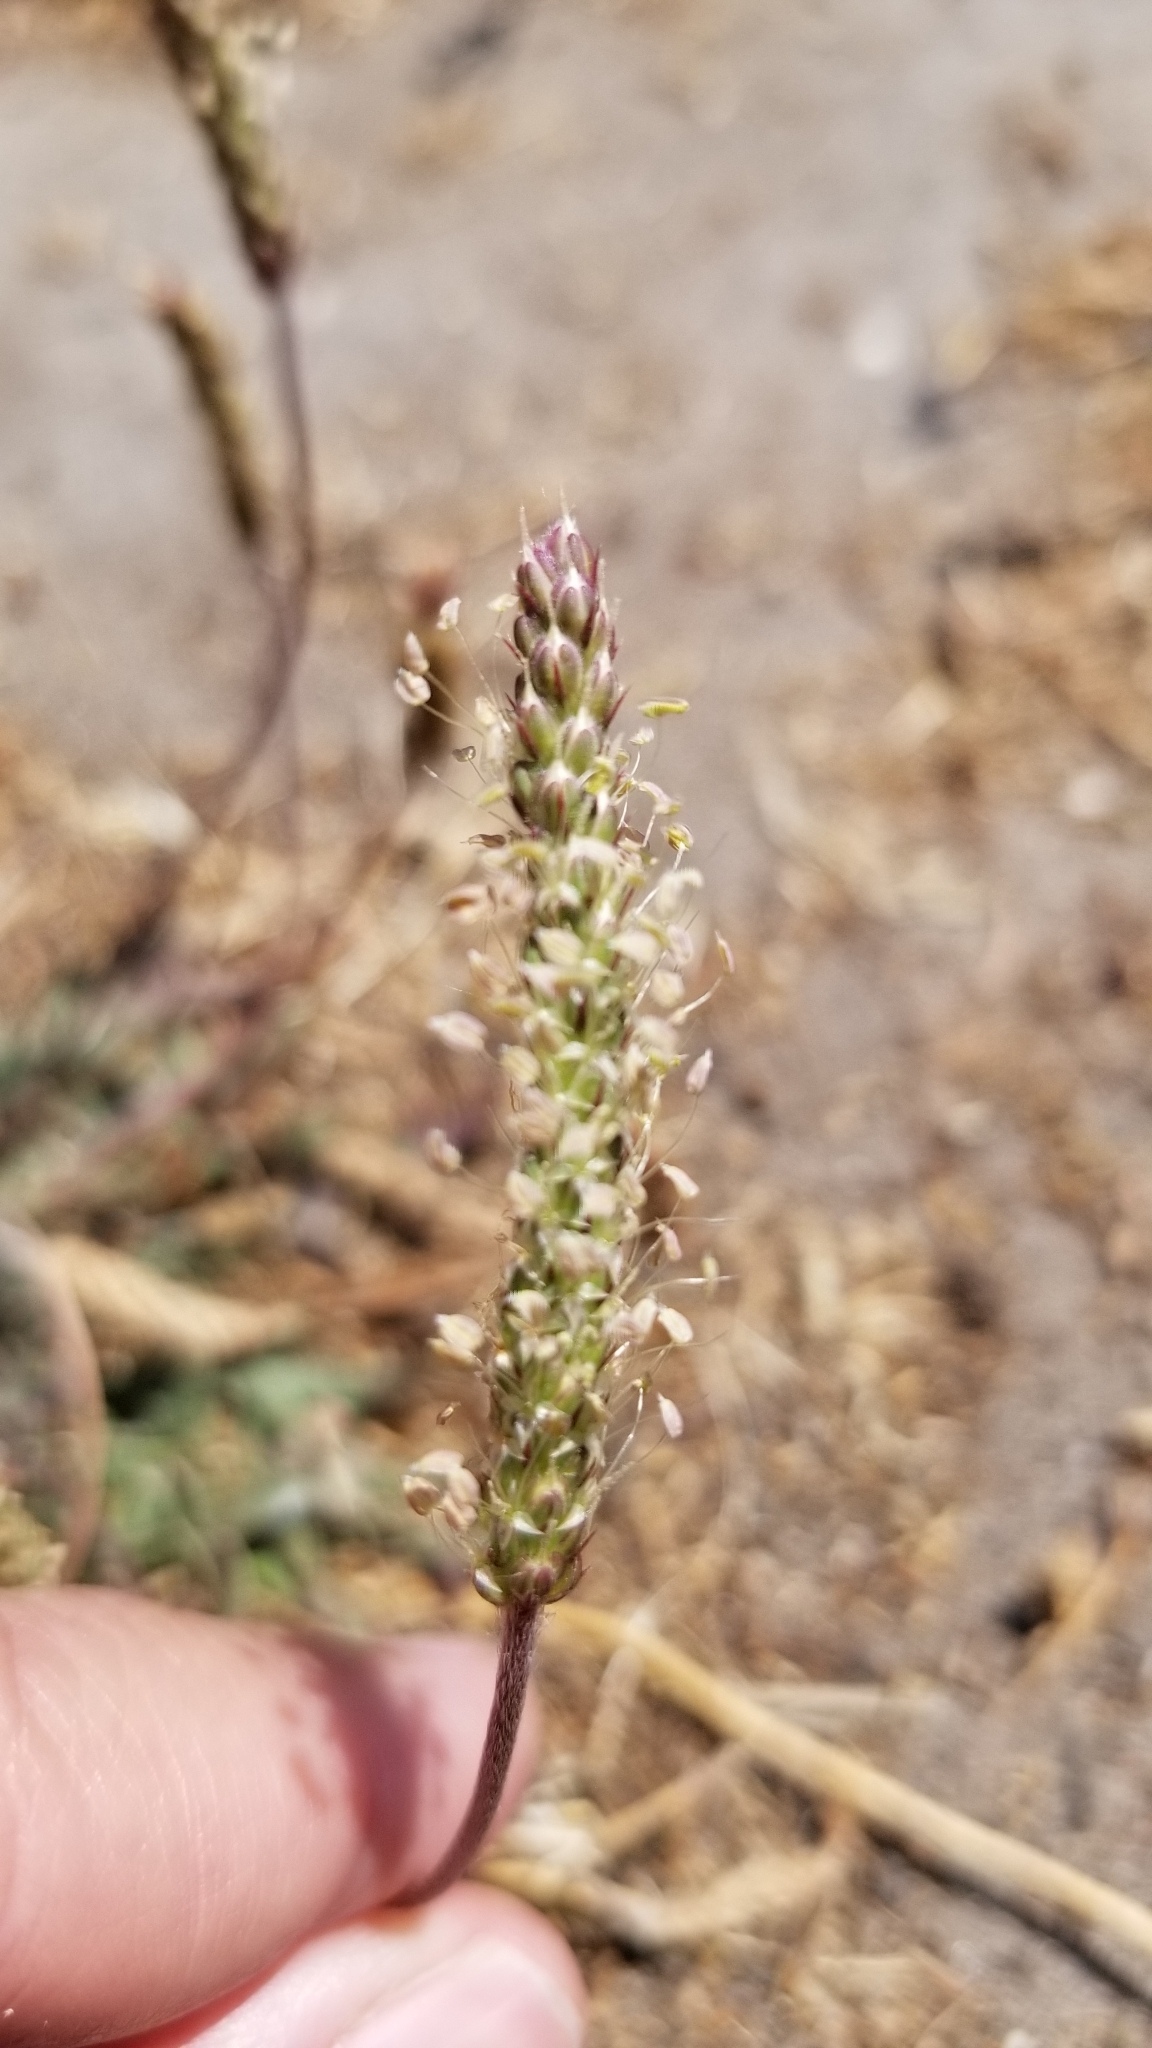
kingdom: Plantae
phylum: Tracheophyta
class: Magnoliopsida
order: Lamiales
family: Plantaginaceae
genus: Plantago
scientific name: Plantago coronopus
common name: Buck's-horn plantain
